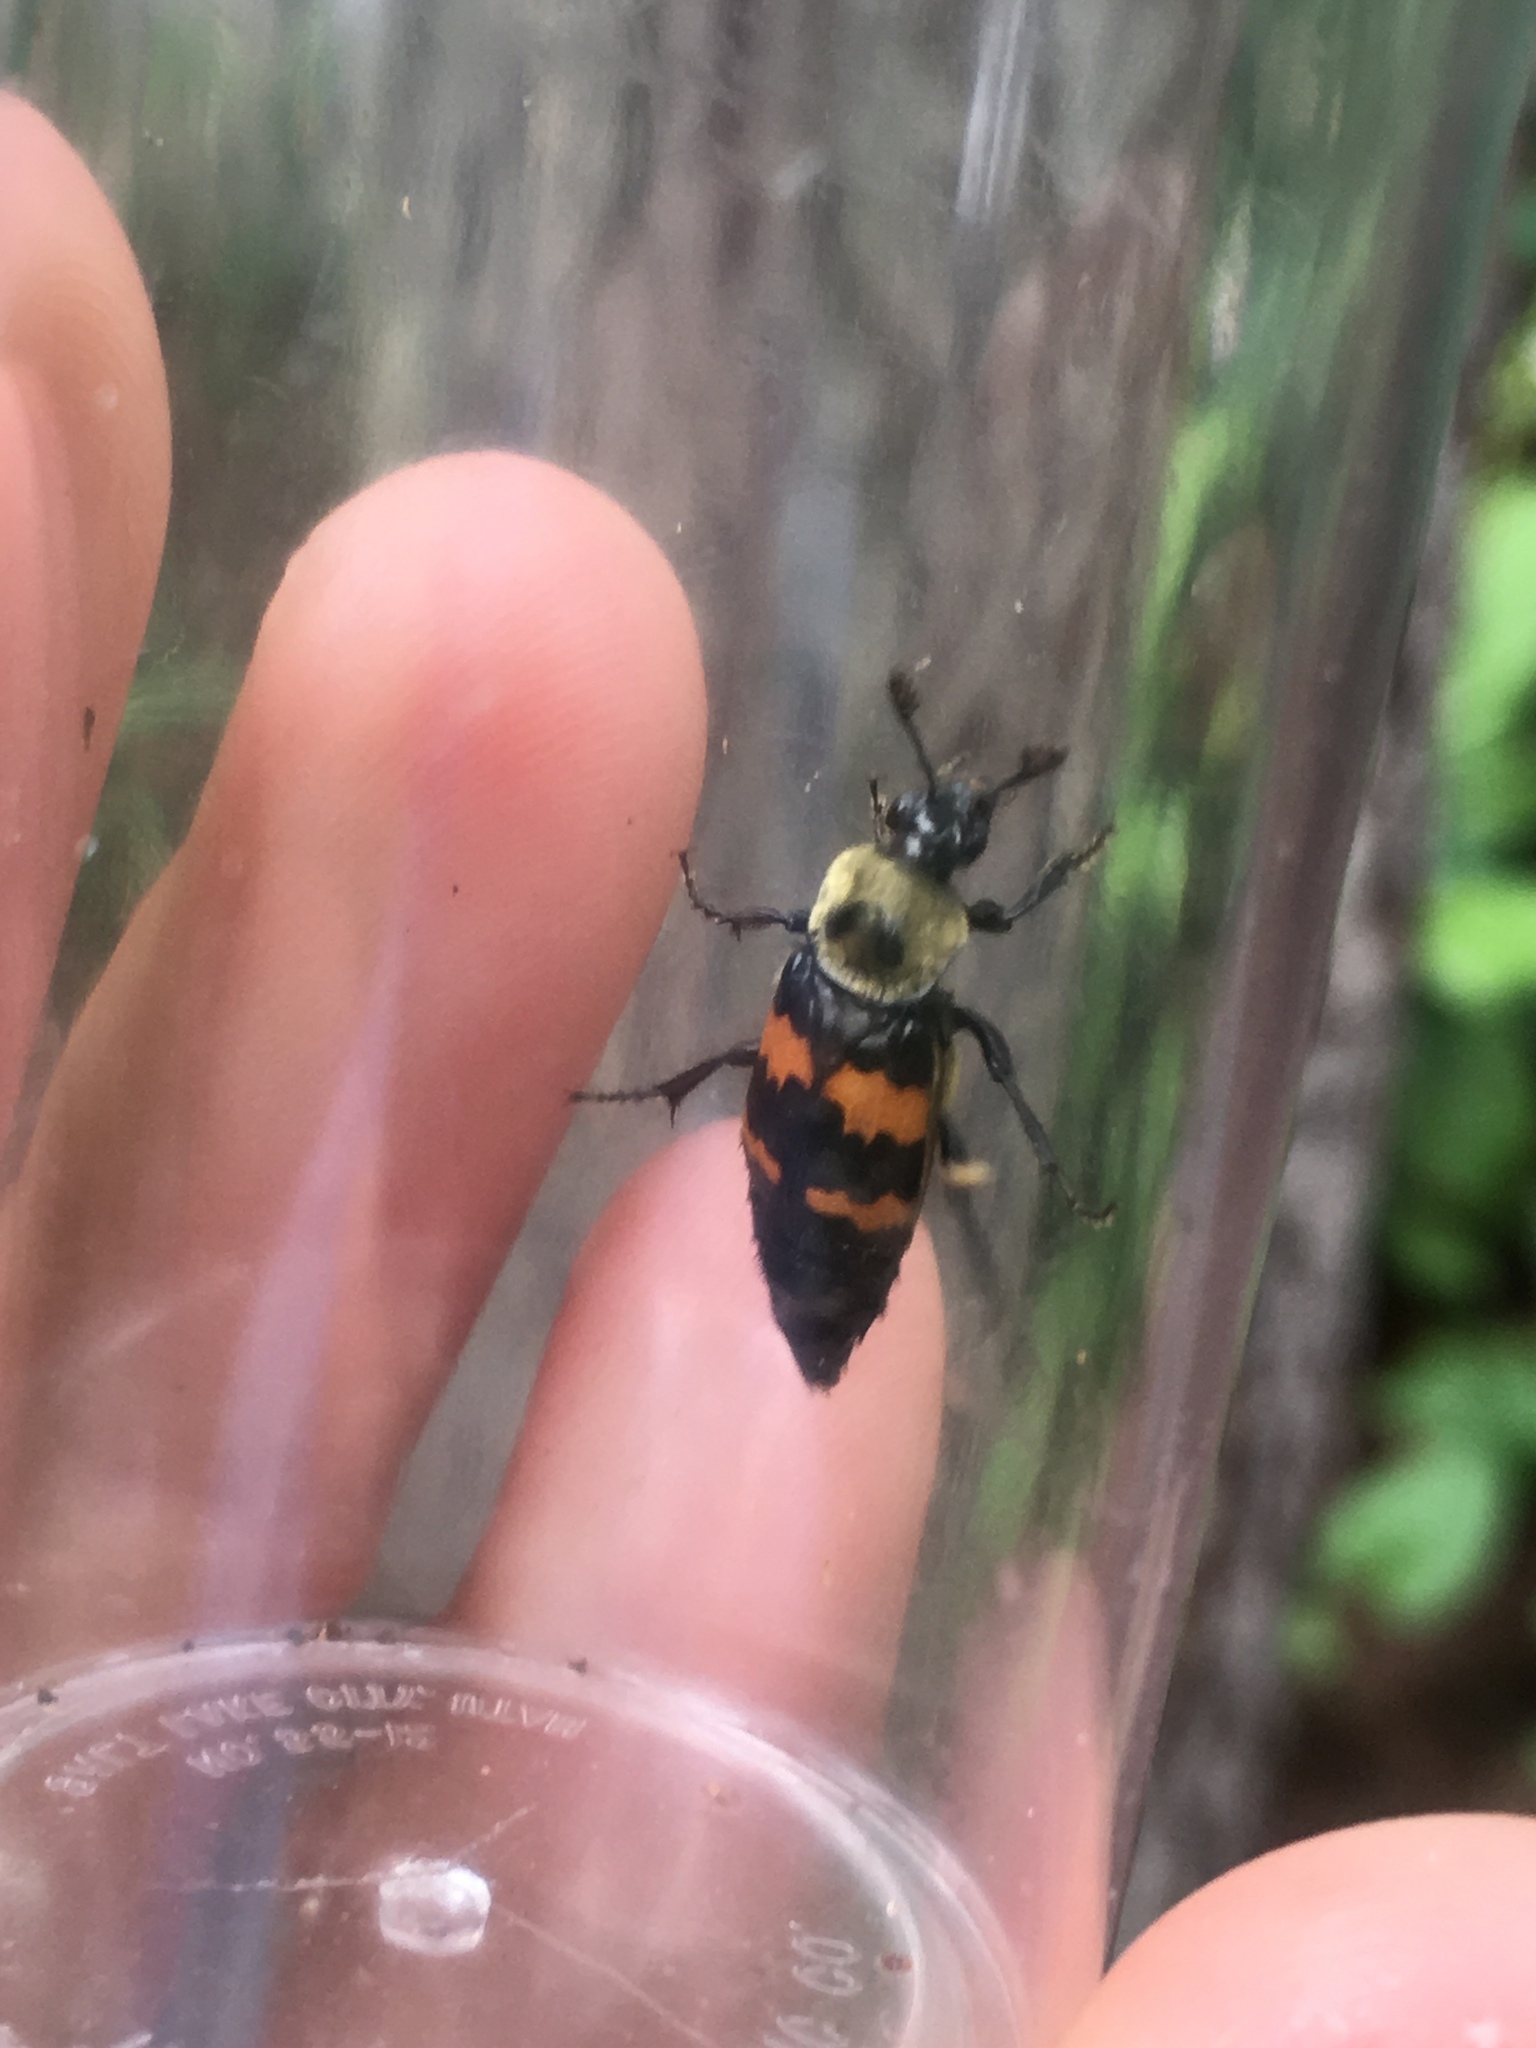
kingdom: Animalia
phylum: Arthropoda
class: Insecta
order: Coleoptera
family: Staphylinidae
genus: Nicrophorus
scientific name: Nicrophorus tomentosus
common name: Tomentose burying beetle
